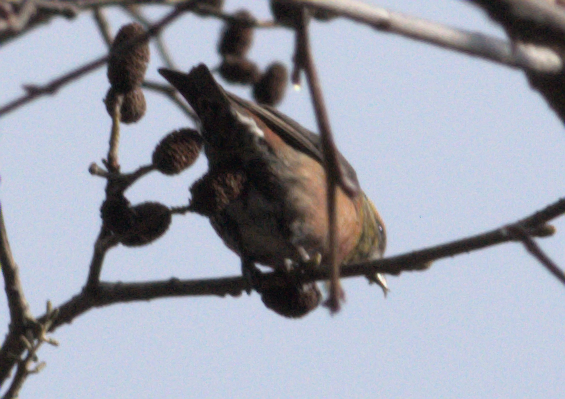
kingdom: Animalia
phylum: Chordata
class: Aves
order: Passeriformes
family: Fringillidae
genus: Loxia
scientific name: Loxia curvirostra
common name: Red crossbill
